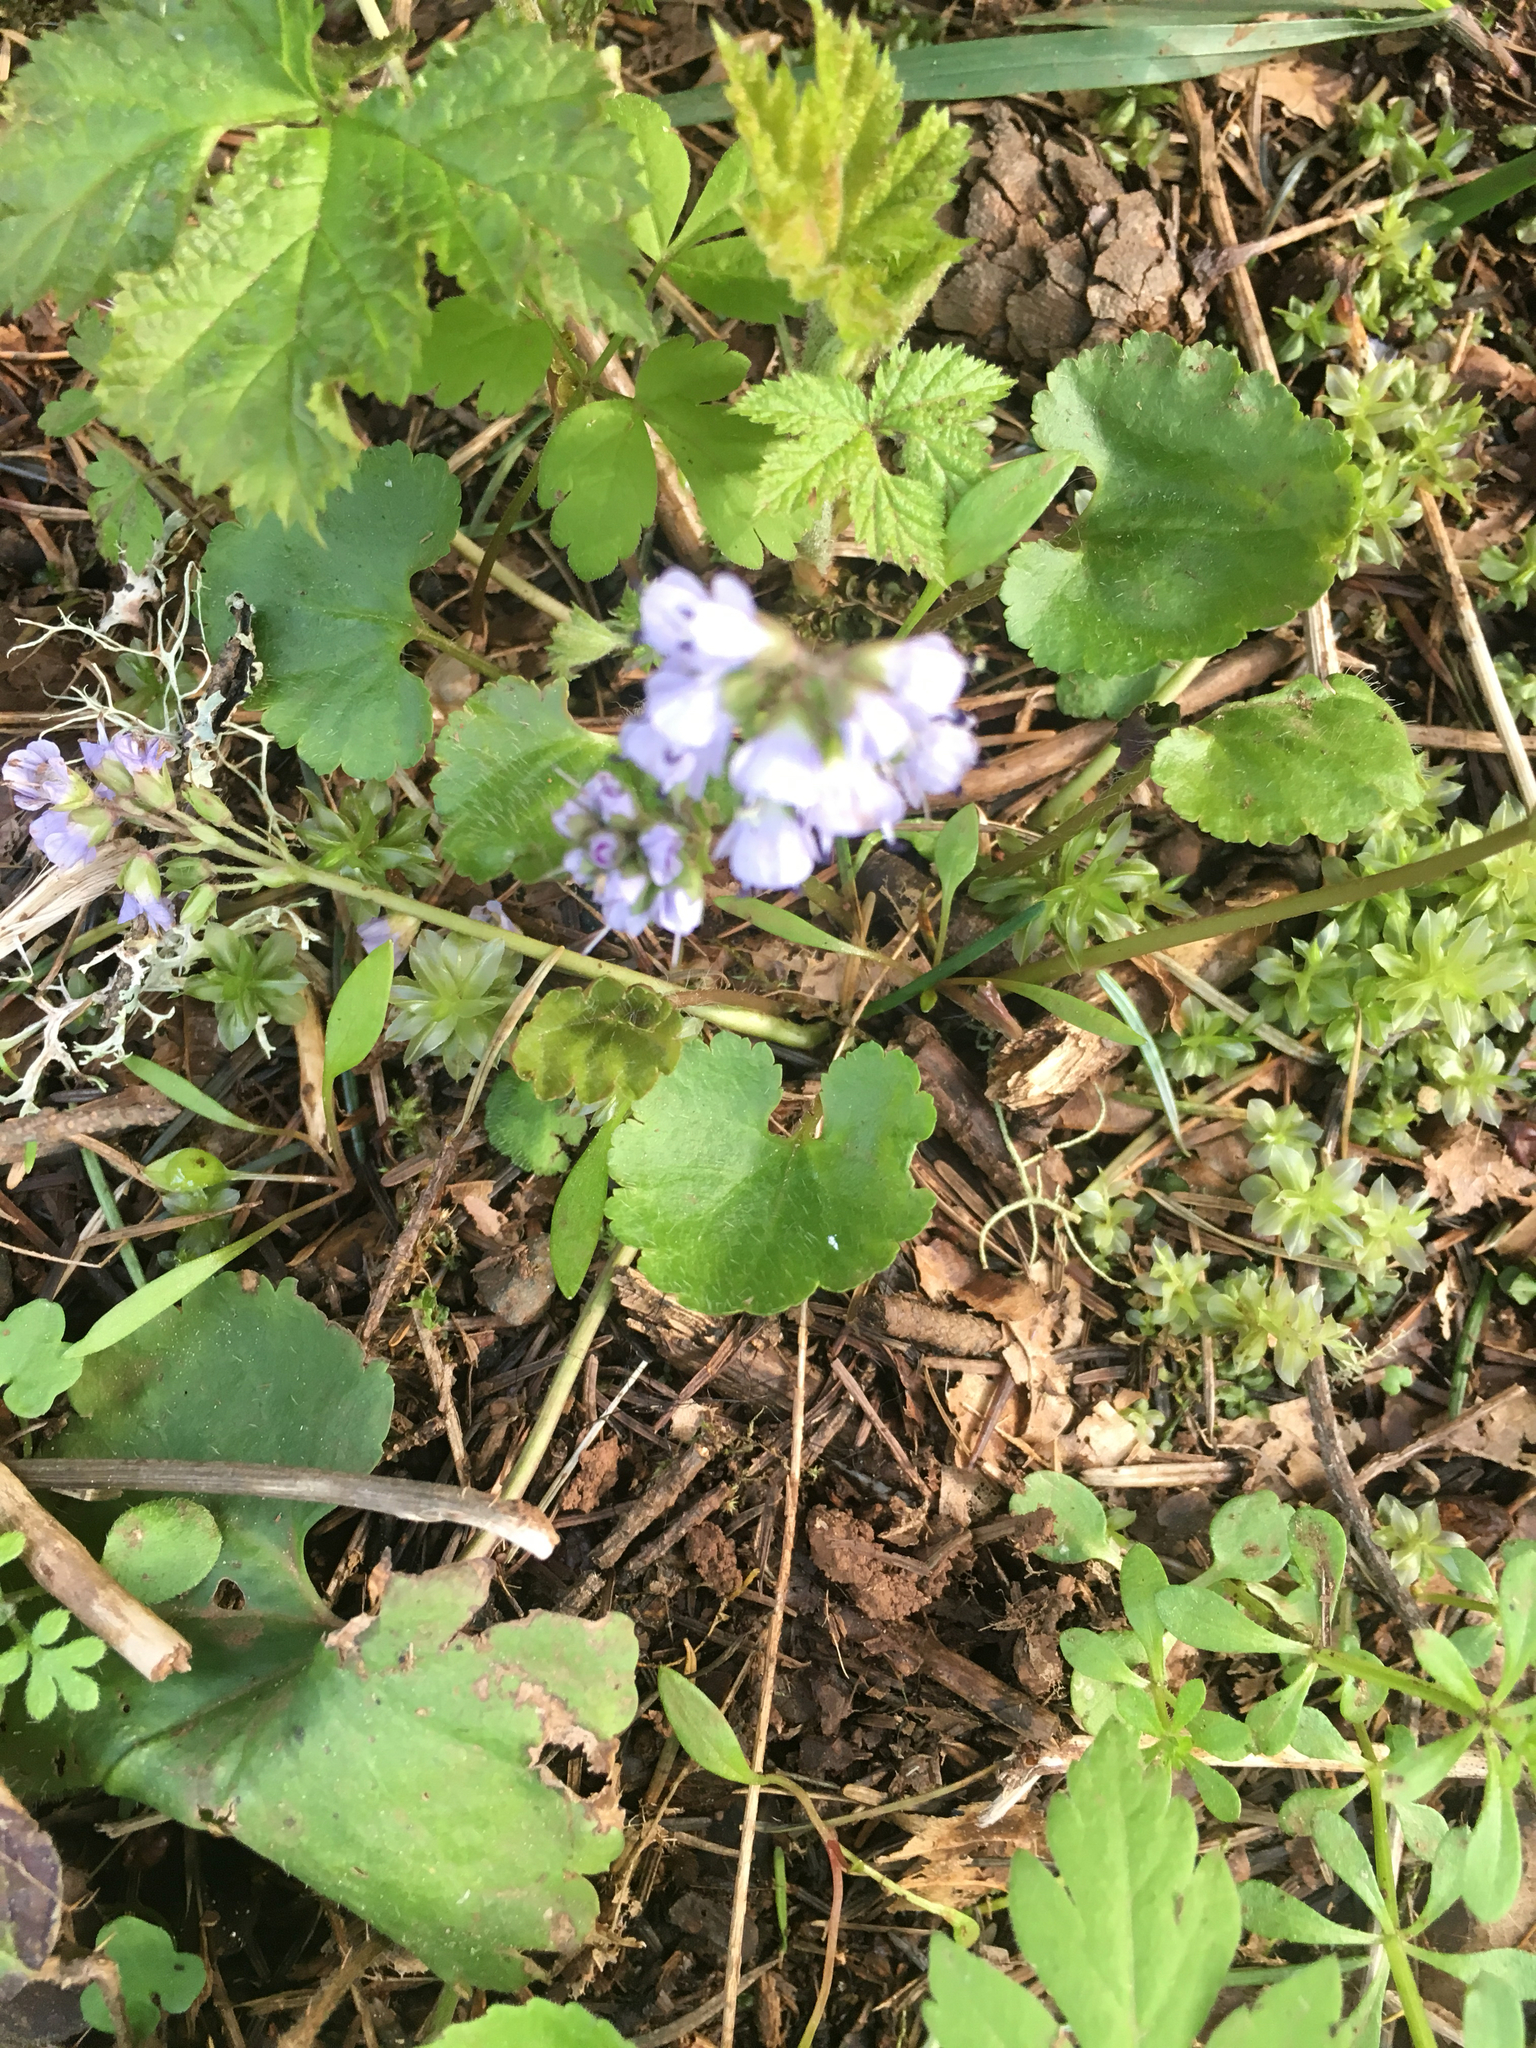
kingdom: Plantae
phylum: Tracheophyta
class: Magnoliopsida
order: Lamiales
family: Plantaginaceae
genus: Synthyris
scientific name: Synthyris reniformis
